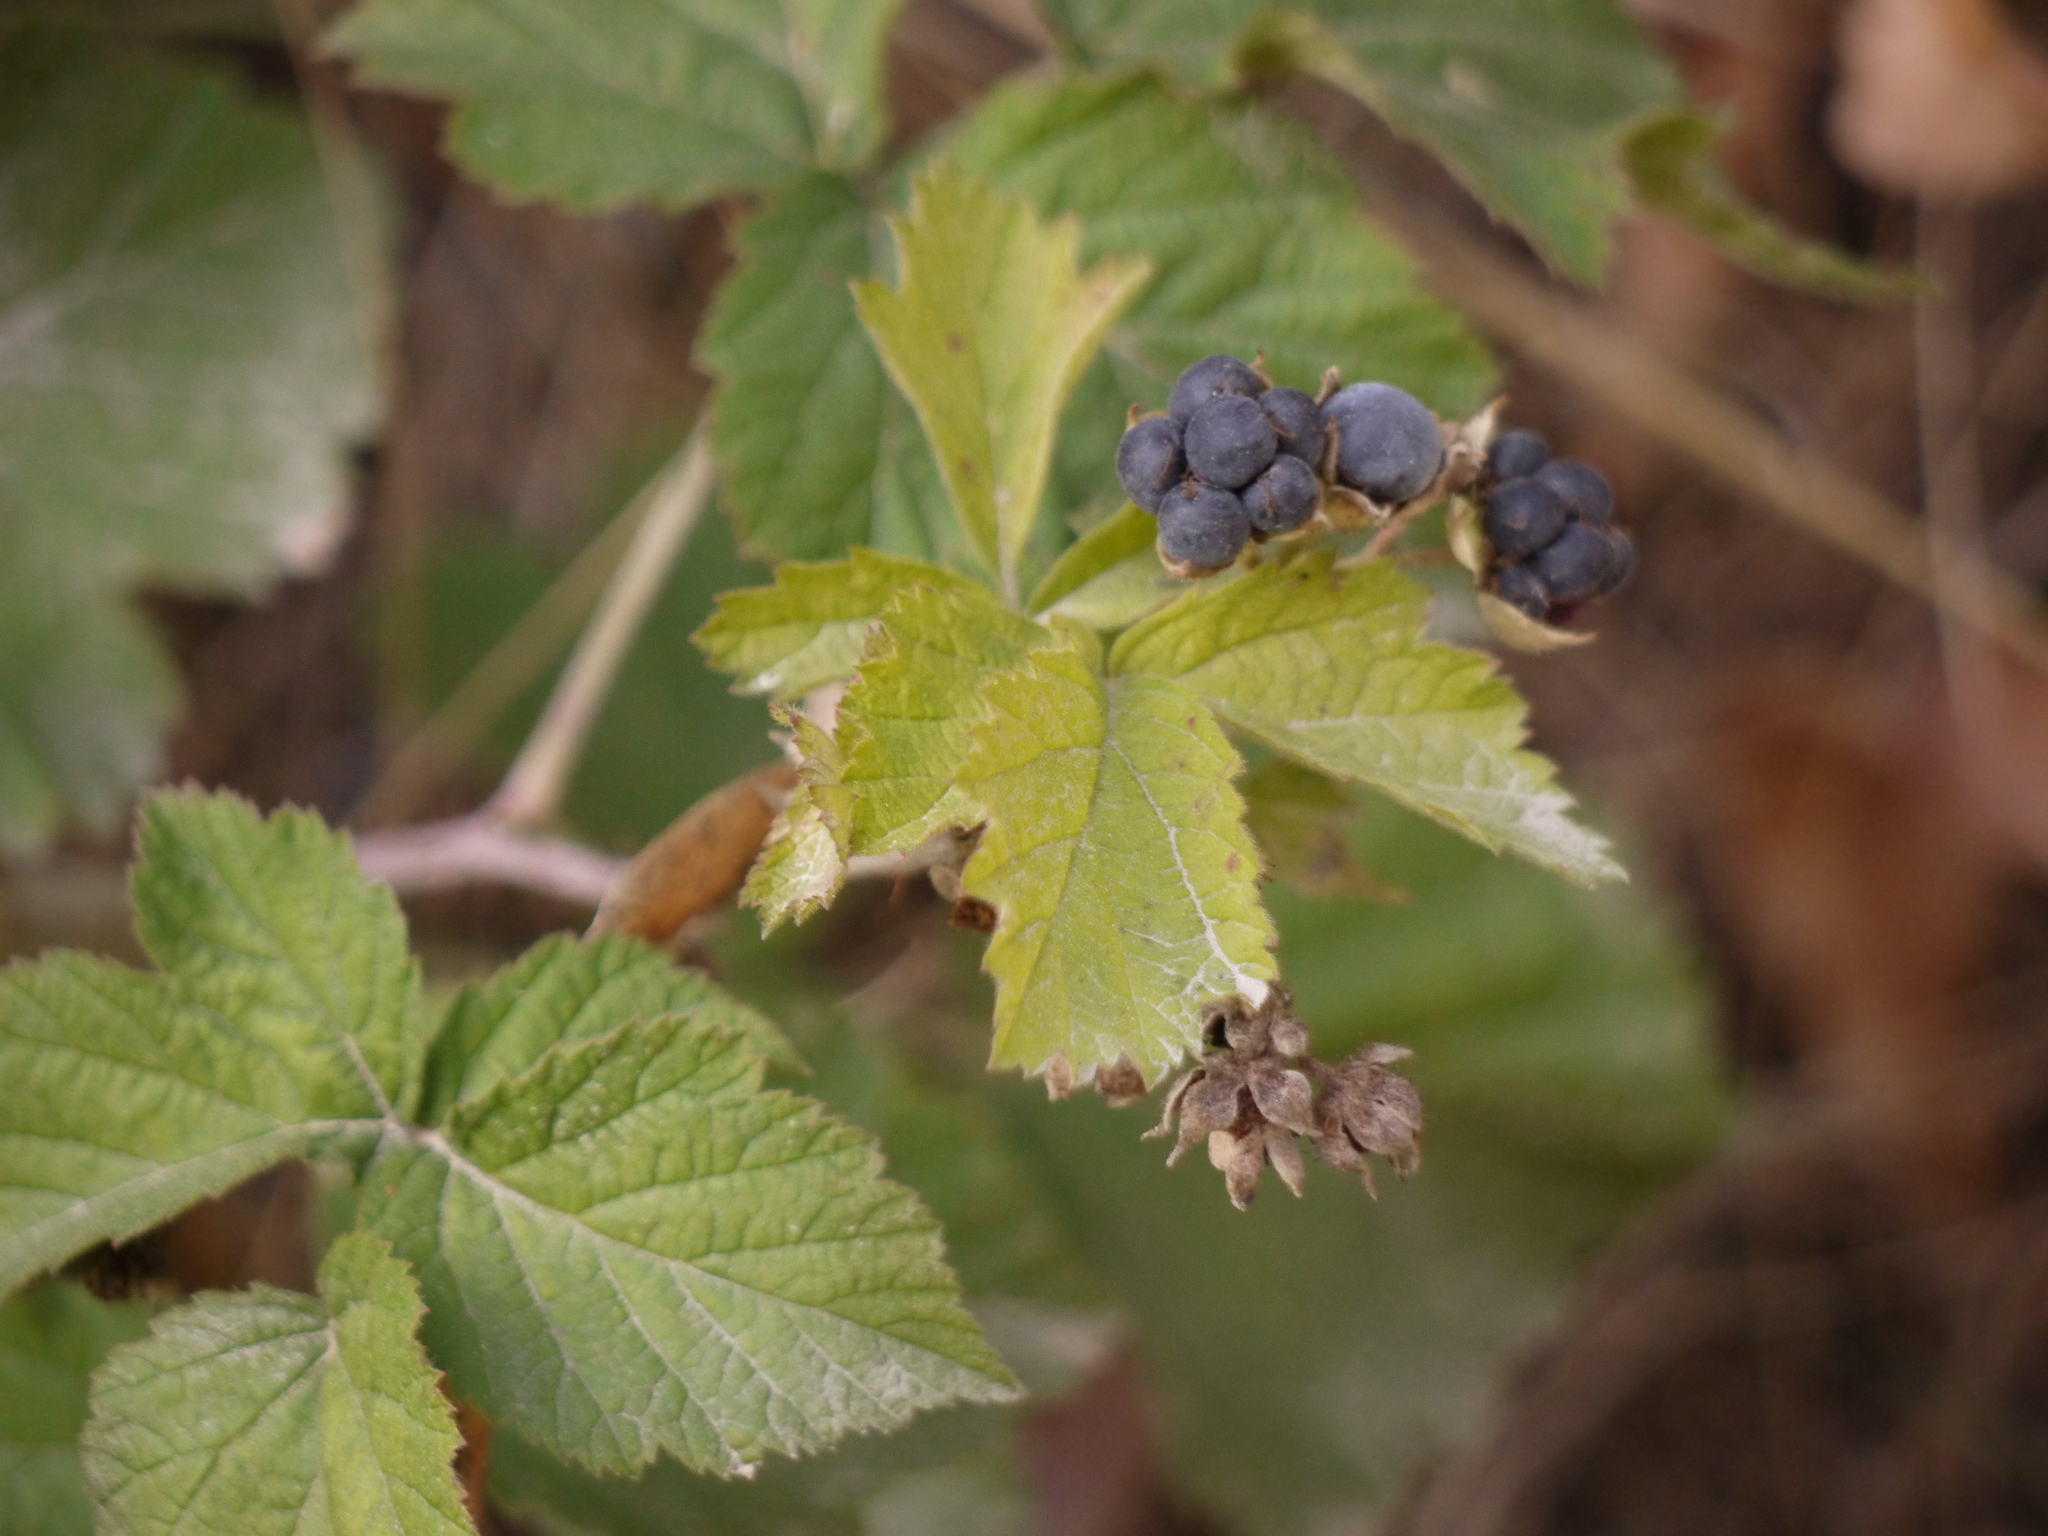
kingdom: Plantae
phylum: Tracheophyta
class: Magnoliopsida
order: Rosales
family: Rosaceae
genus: Rubus
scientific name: Rubus caesius
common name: Dewberry
